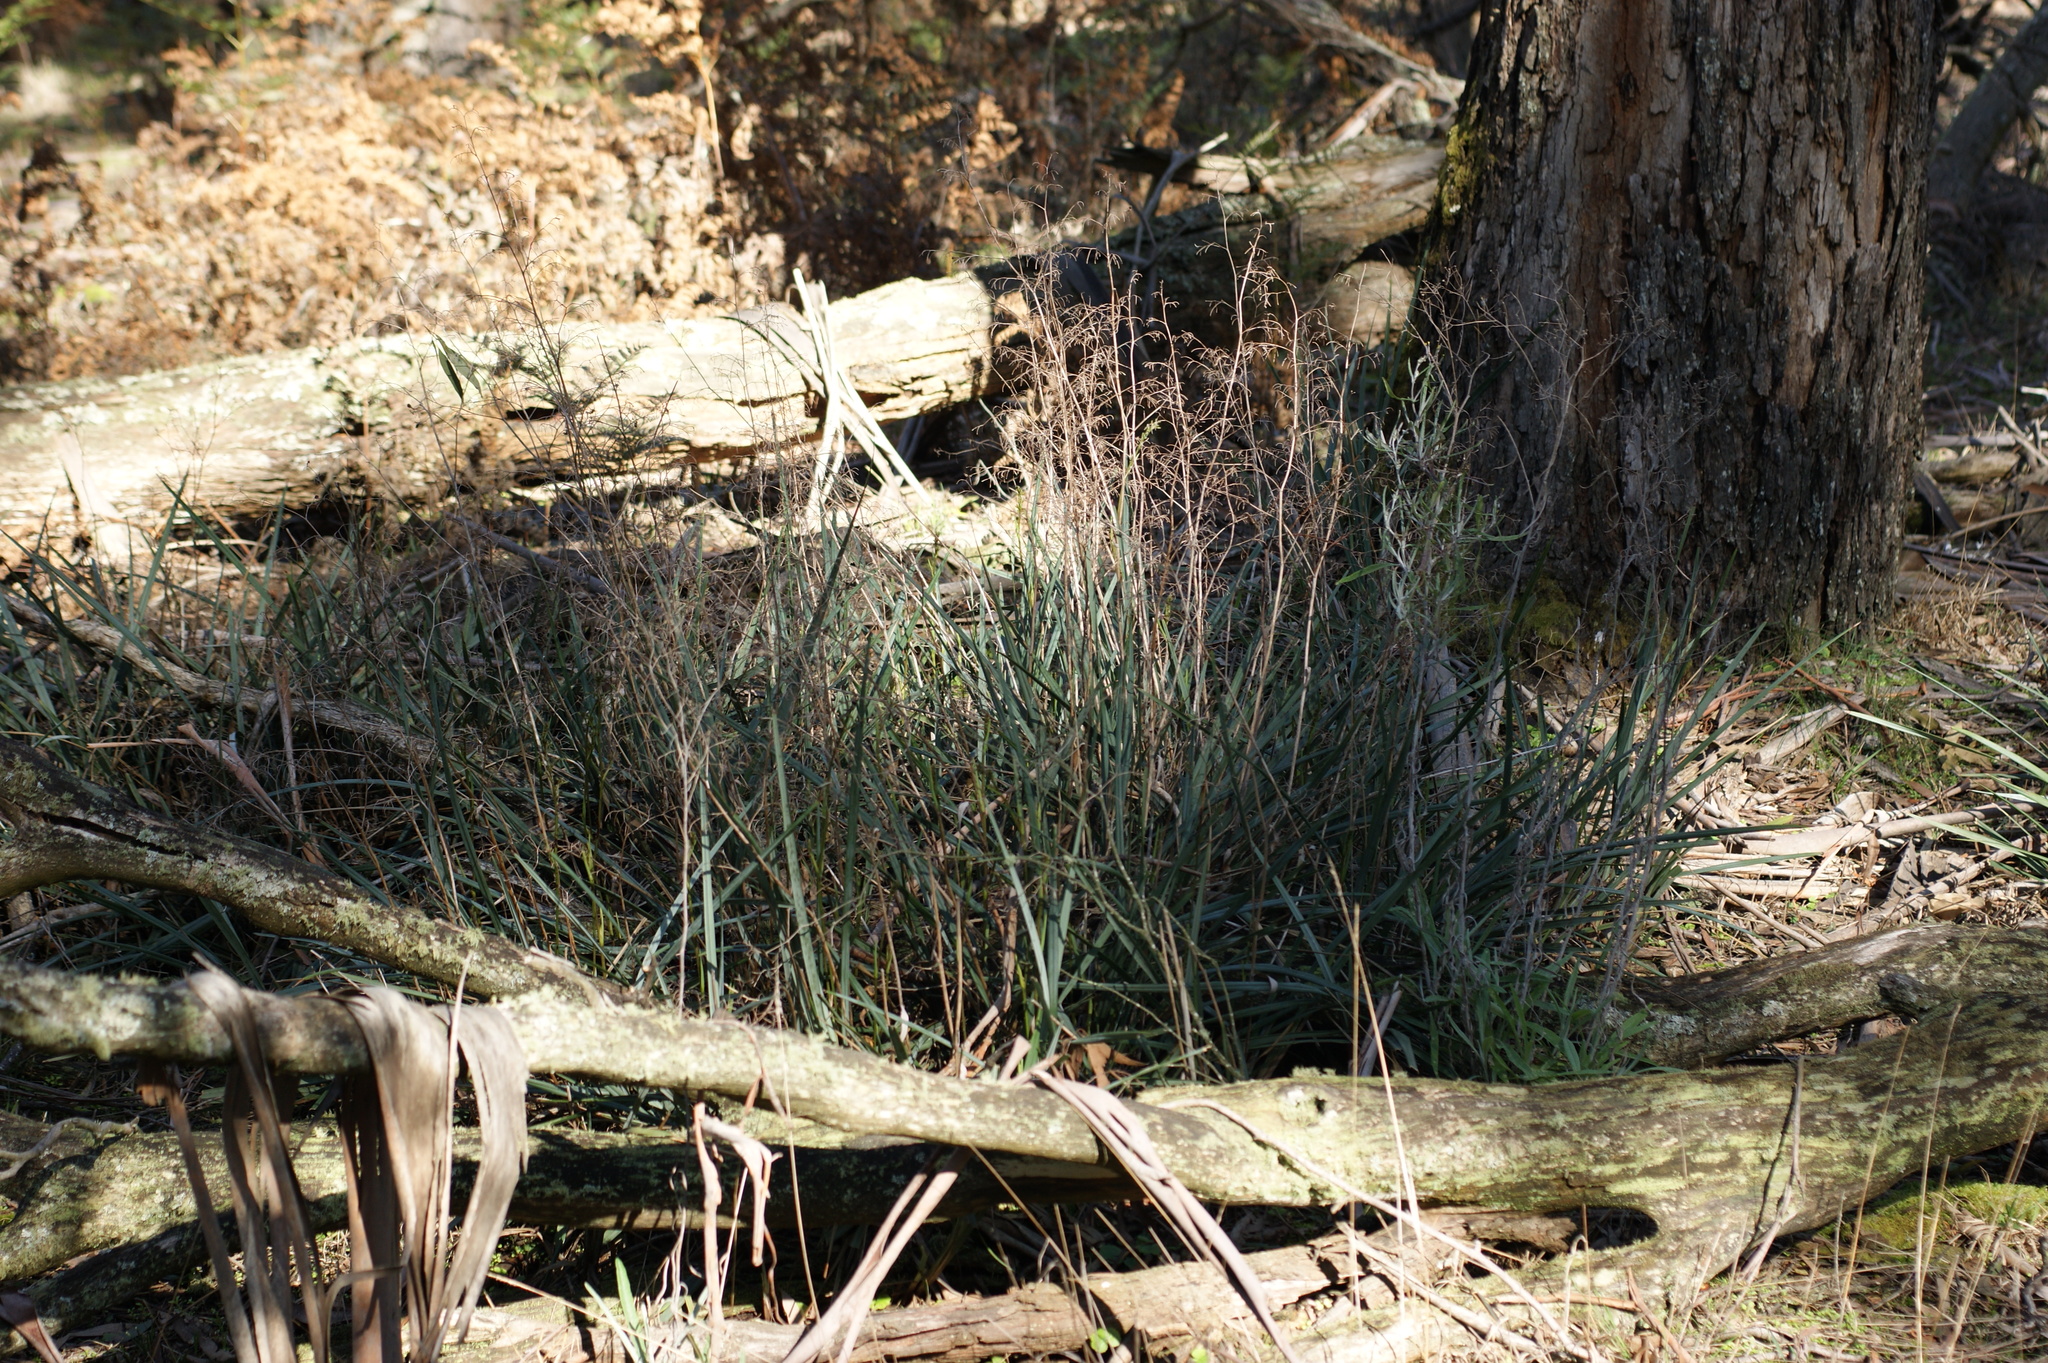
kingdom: Plantae
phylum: Tracheophyta
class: Liliopsida
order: Asparagales
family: Asphodelaceae
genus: Dianella
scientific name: Dianella revoluta
